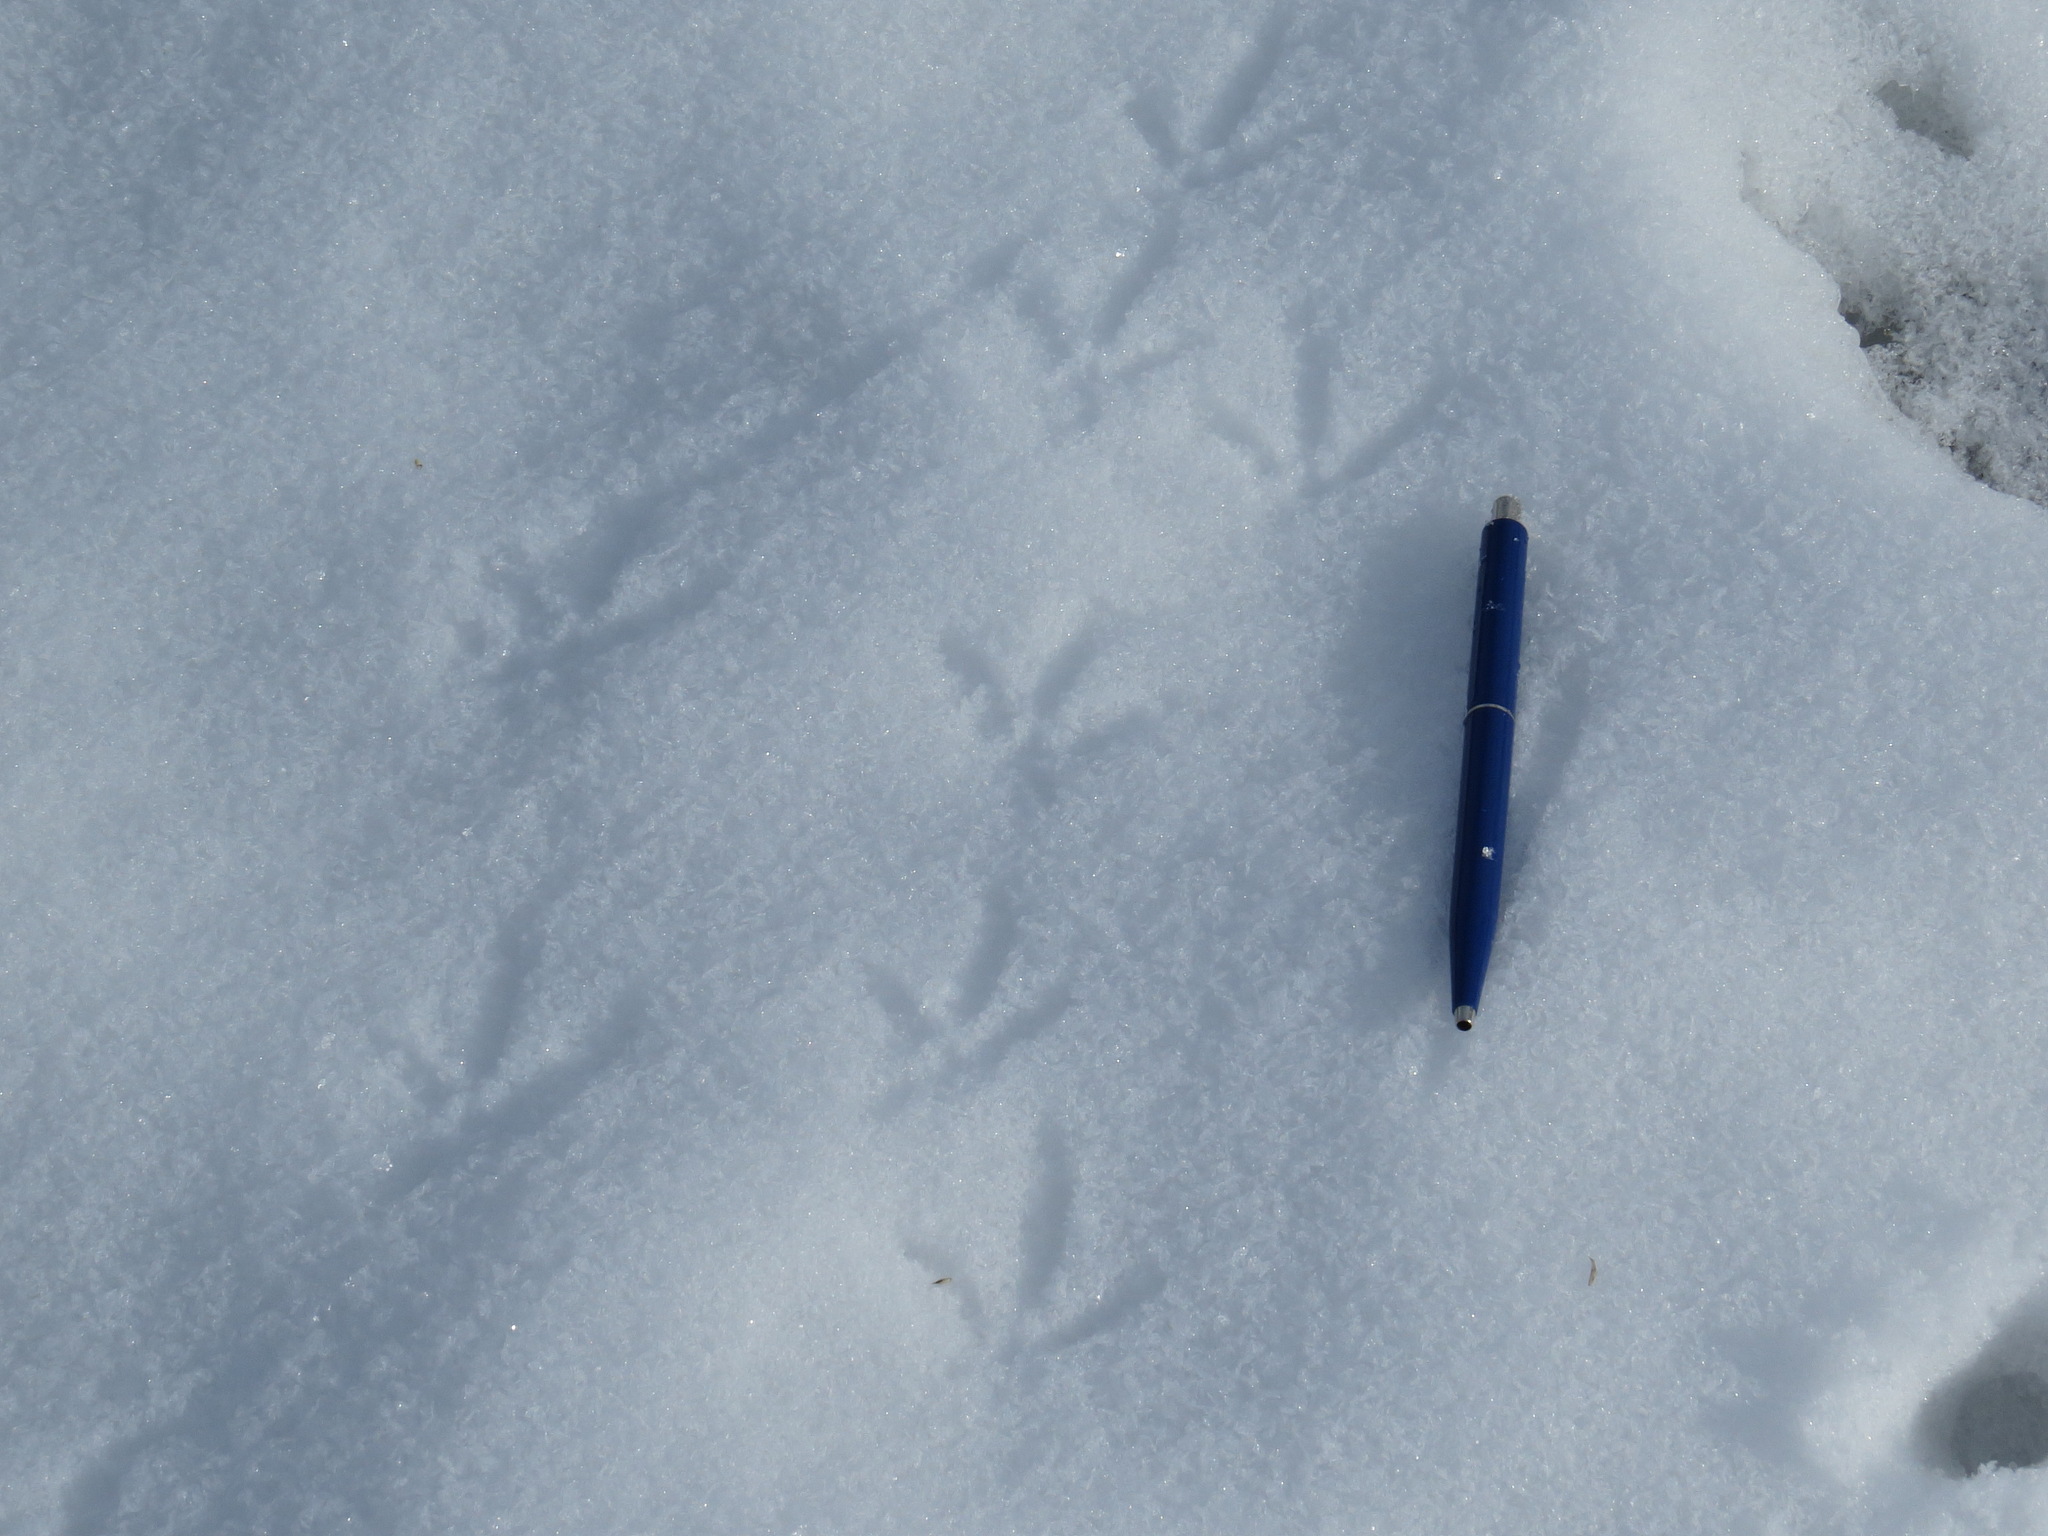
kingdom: Animalia
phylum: Chordata
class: Aves
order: Galliformes
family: Phasianidae
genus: Perdix
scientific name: Perdix perdix
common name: Grey partridge
